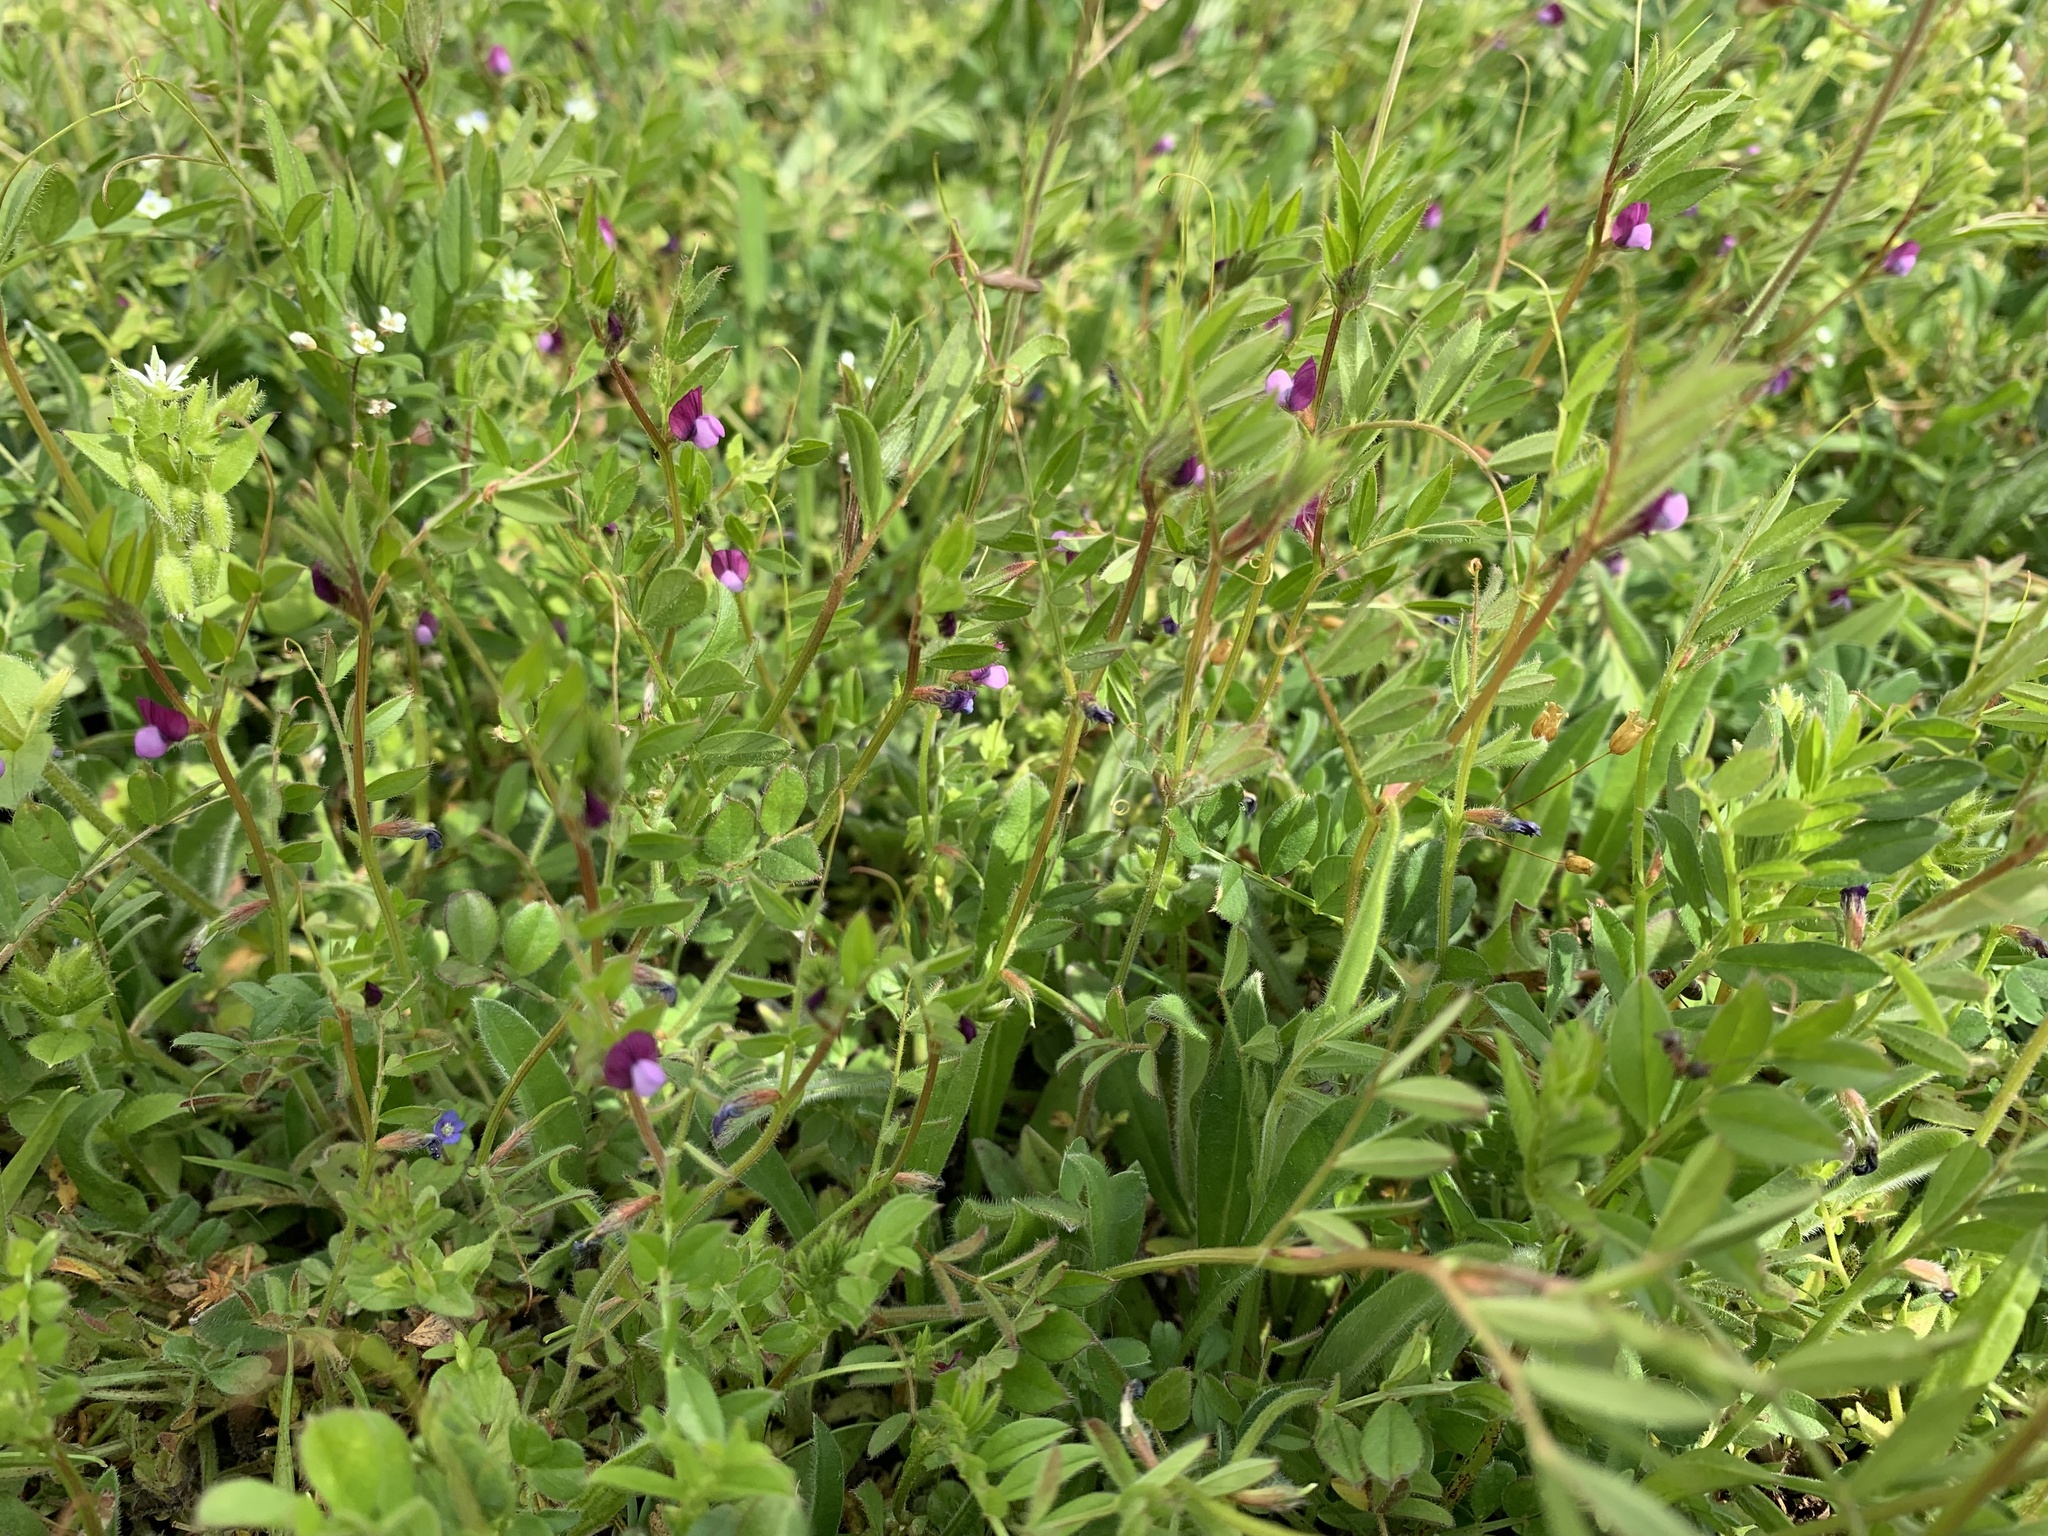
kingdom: Plantae
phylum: Tracheophyta
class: Magnoliopsida
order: Fabales
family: Fabaceae
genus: Vicia
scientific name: Vicia lathyroides
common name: Spring vetch
